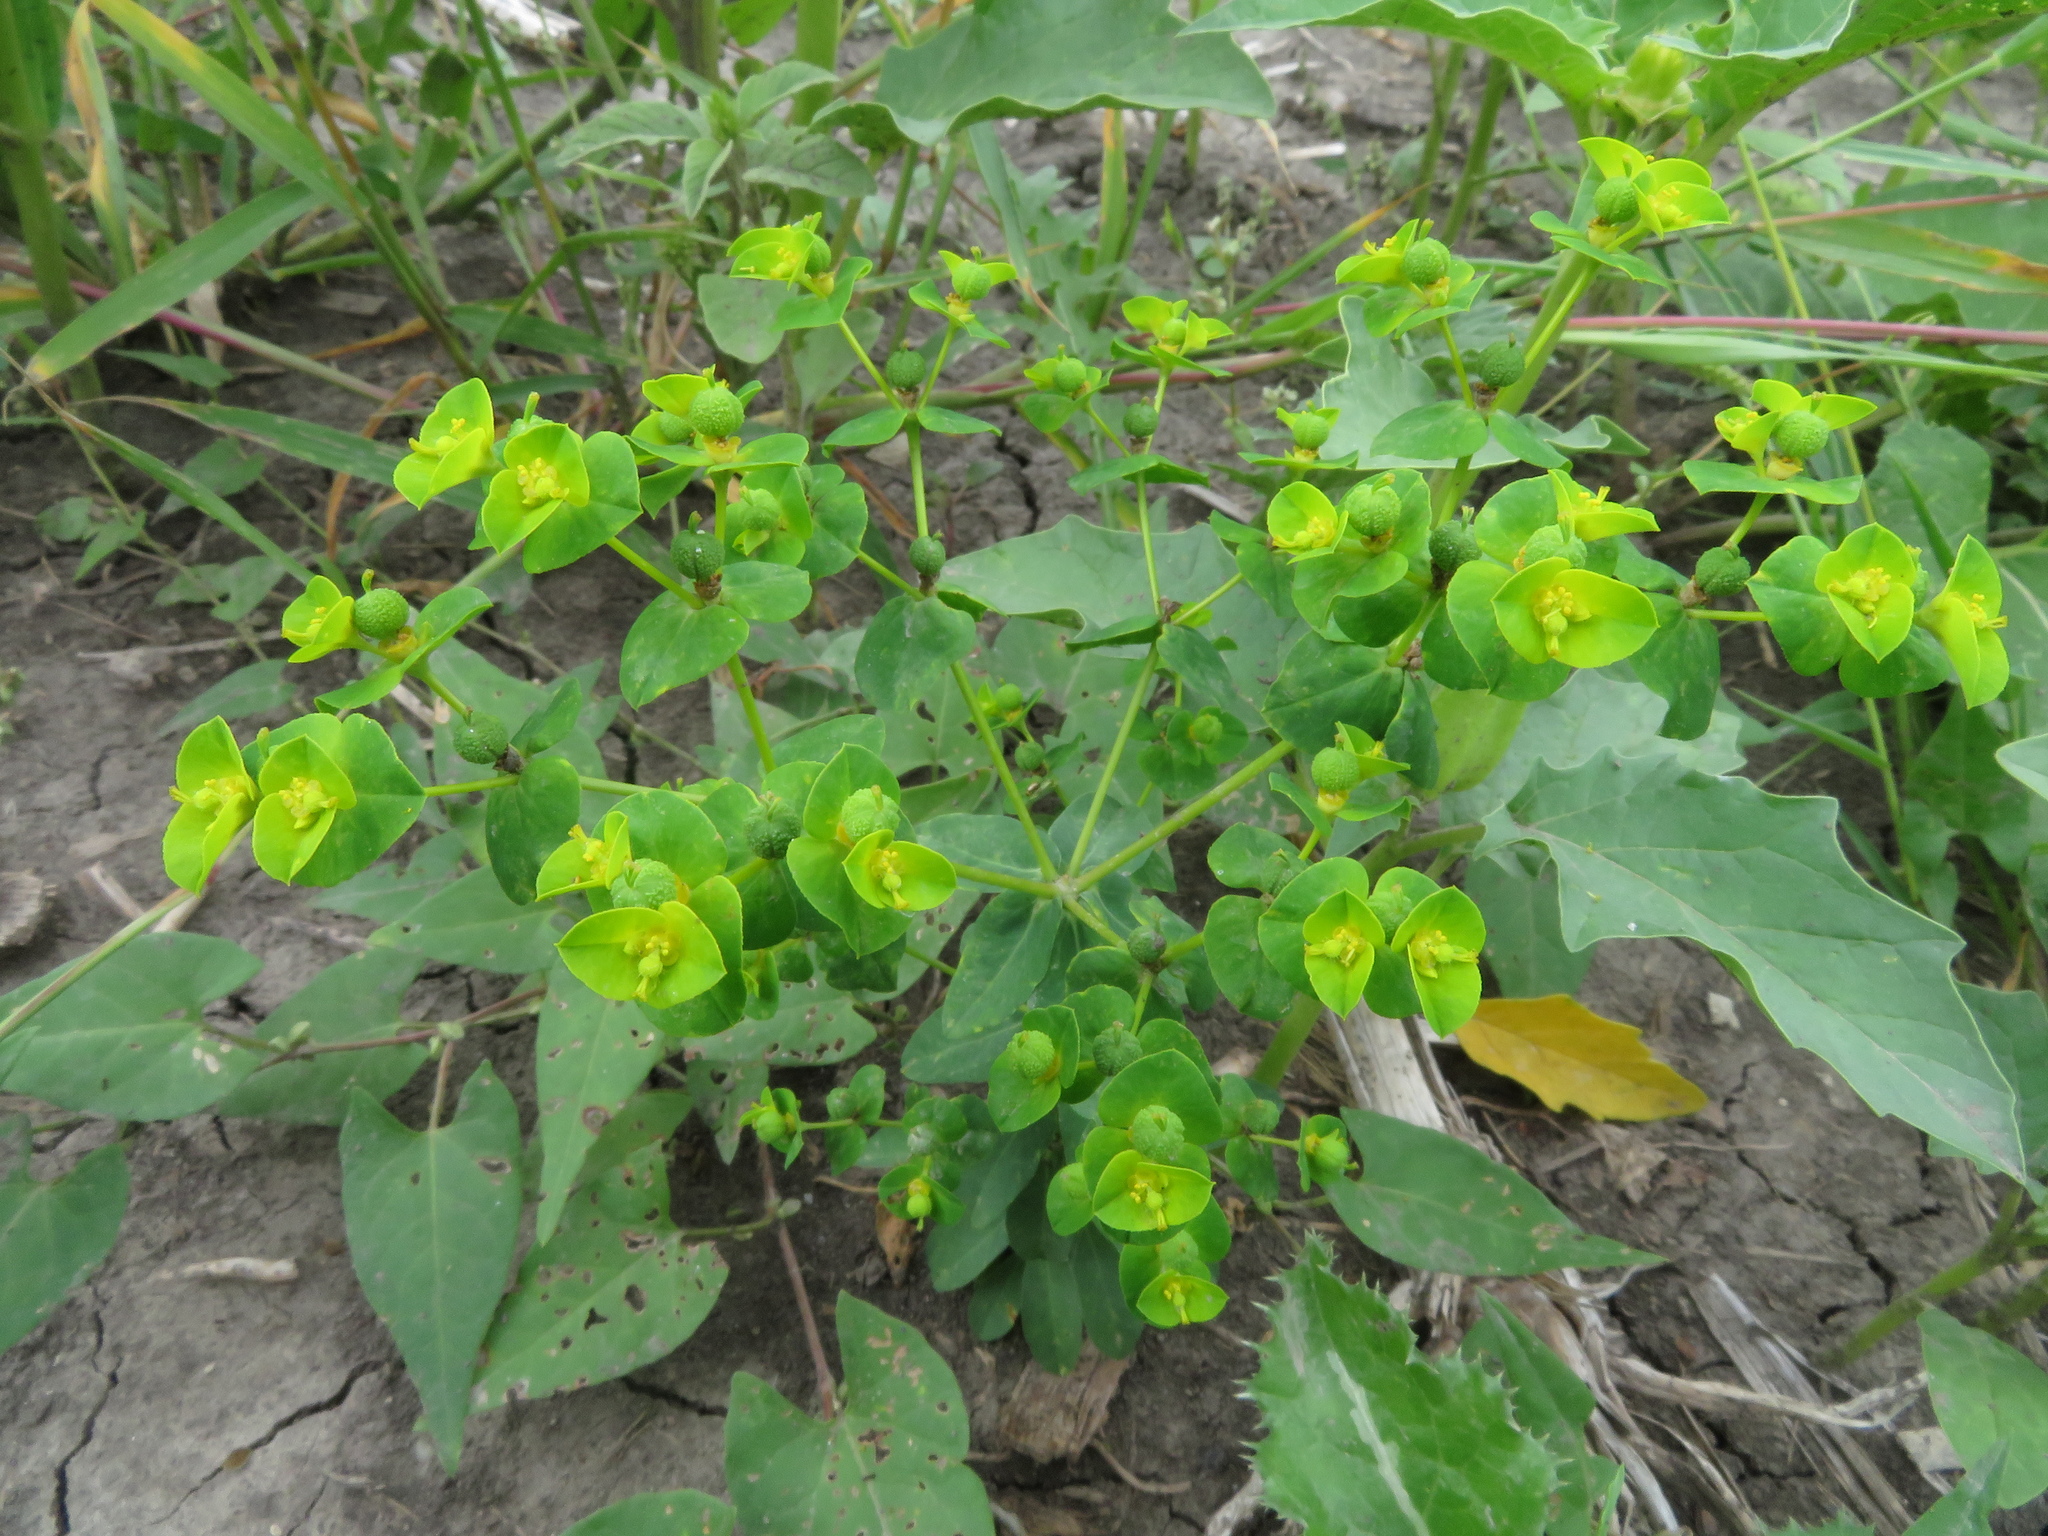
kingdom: Plantae
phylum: Tracheophyta
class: Magnoliopsida
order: Malpighiales
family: Euphorbiaceae
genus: Euphorbia
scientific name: Euphorbia platyphyllos
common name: Broad-leaved spurge
